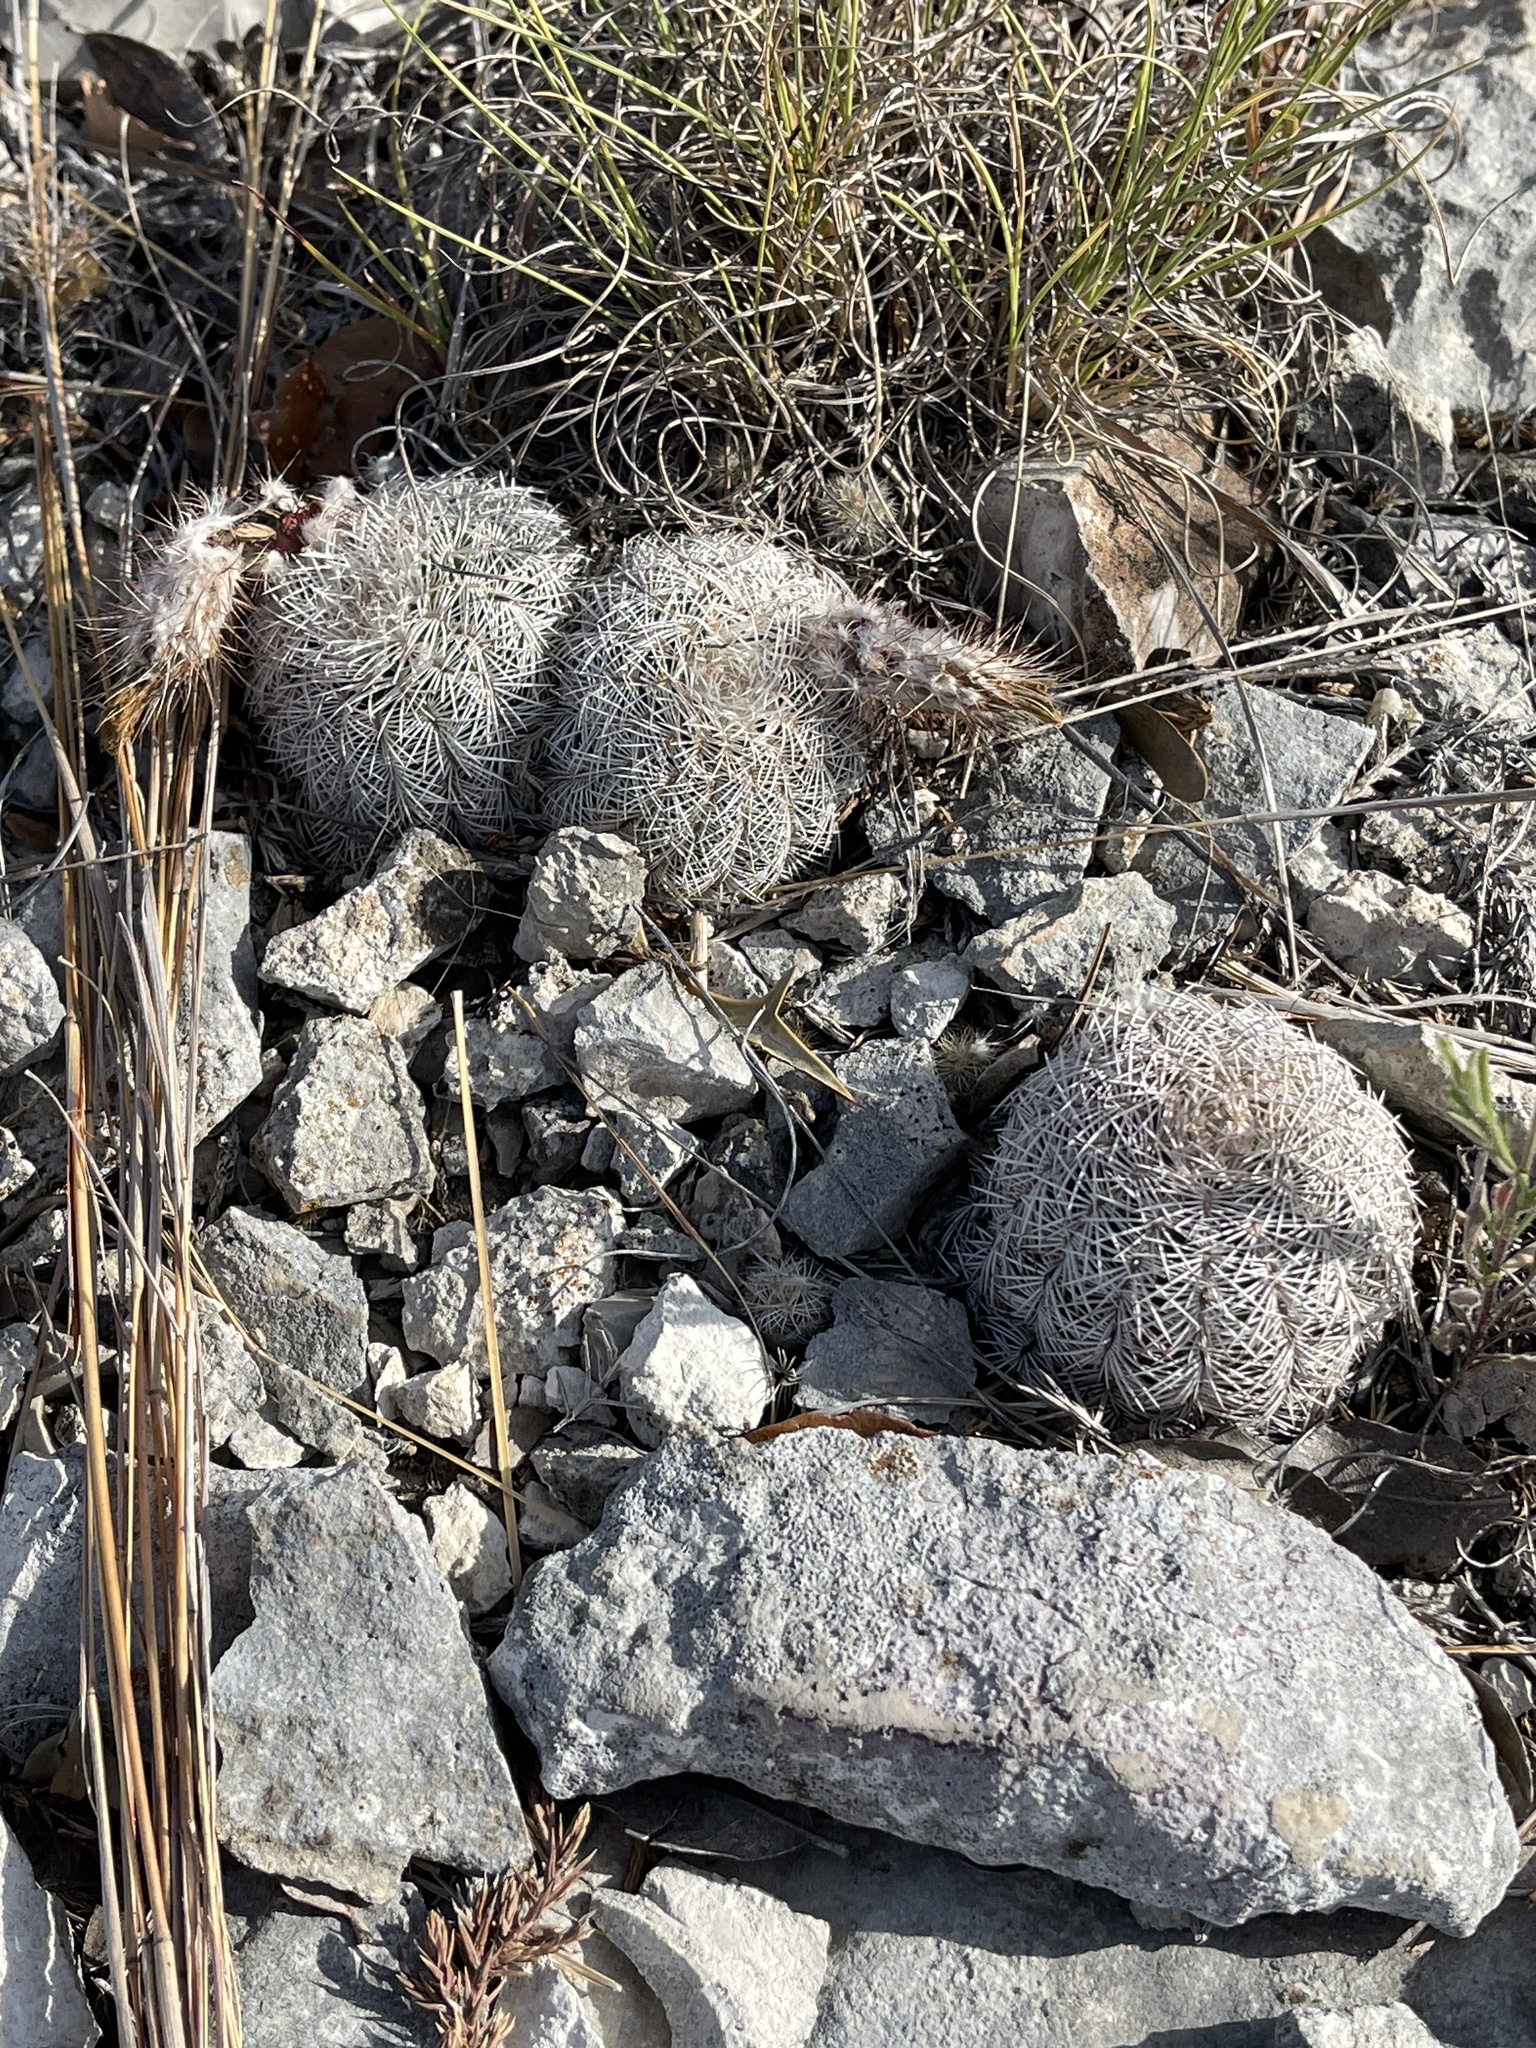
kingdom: Plantae
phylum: Tracheophyta
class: Magnoliopsida
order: Caryophyllales
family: Cactaceae
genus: Echinocereus
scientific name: Echinocereus reichenbachii
